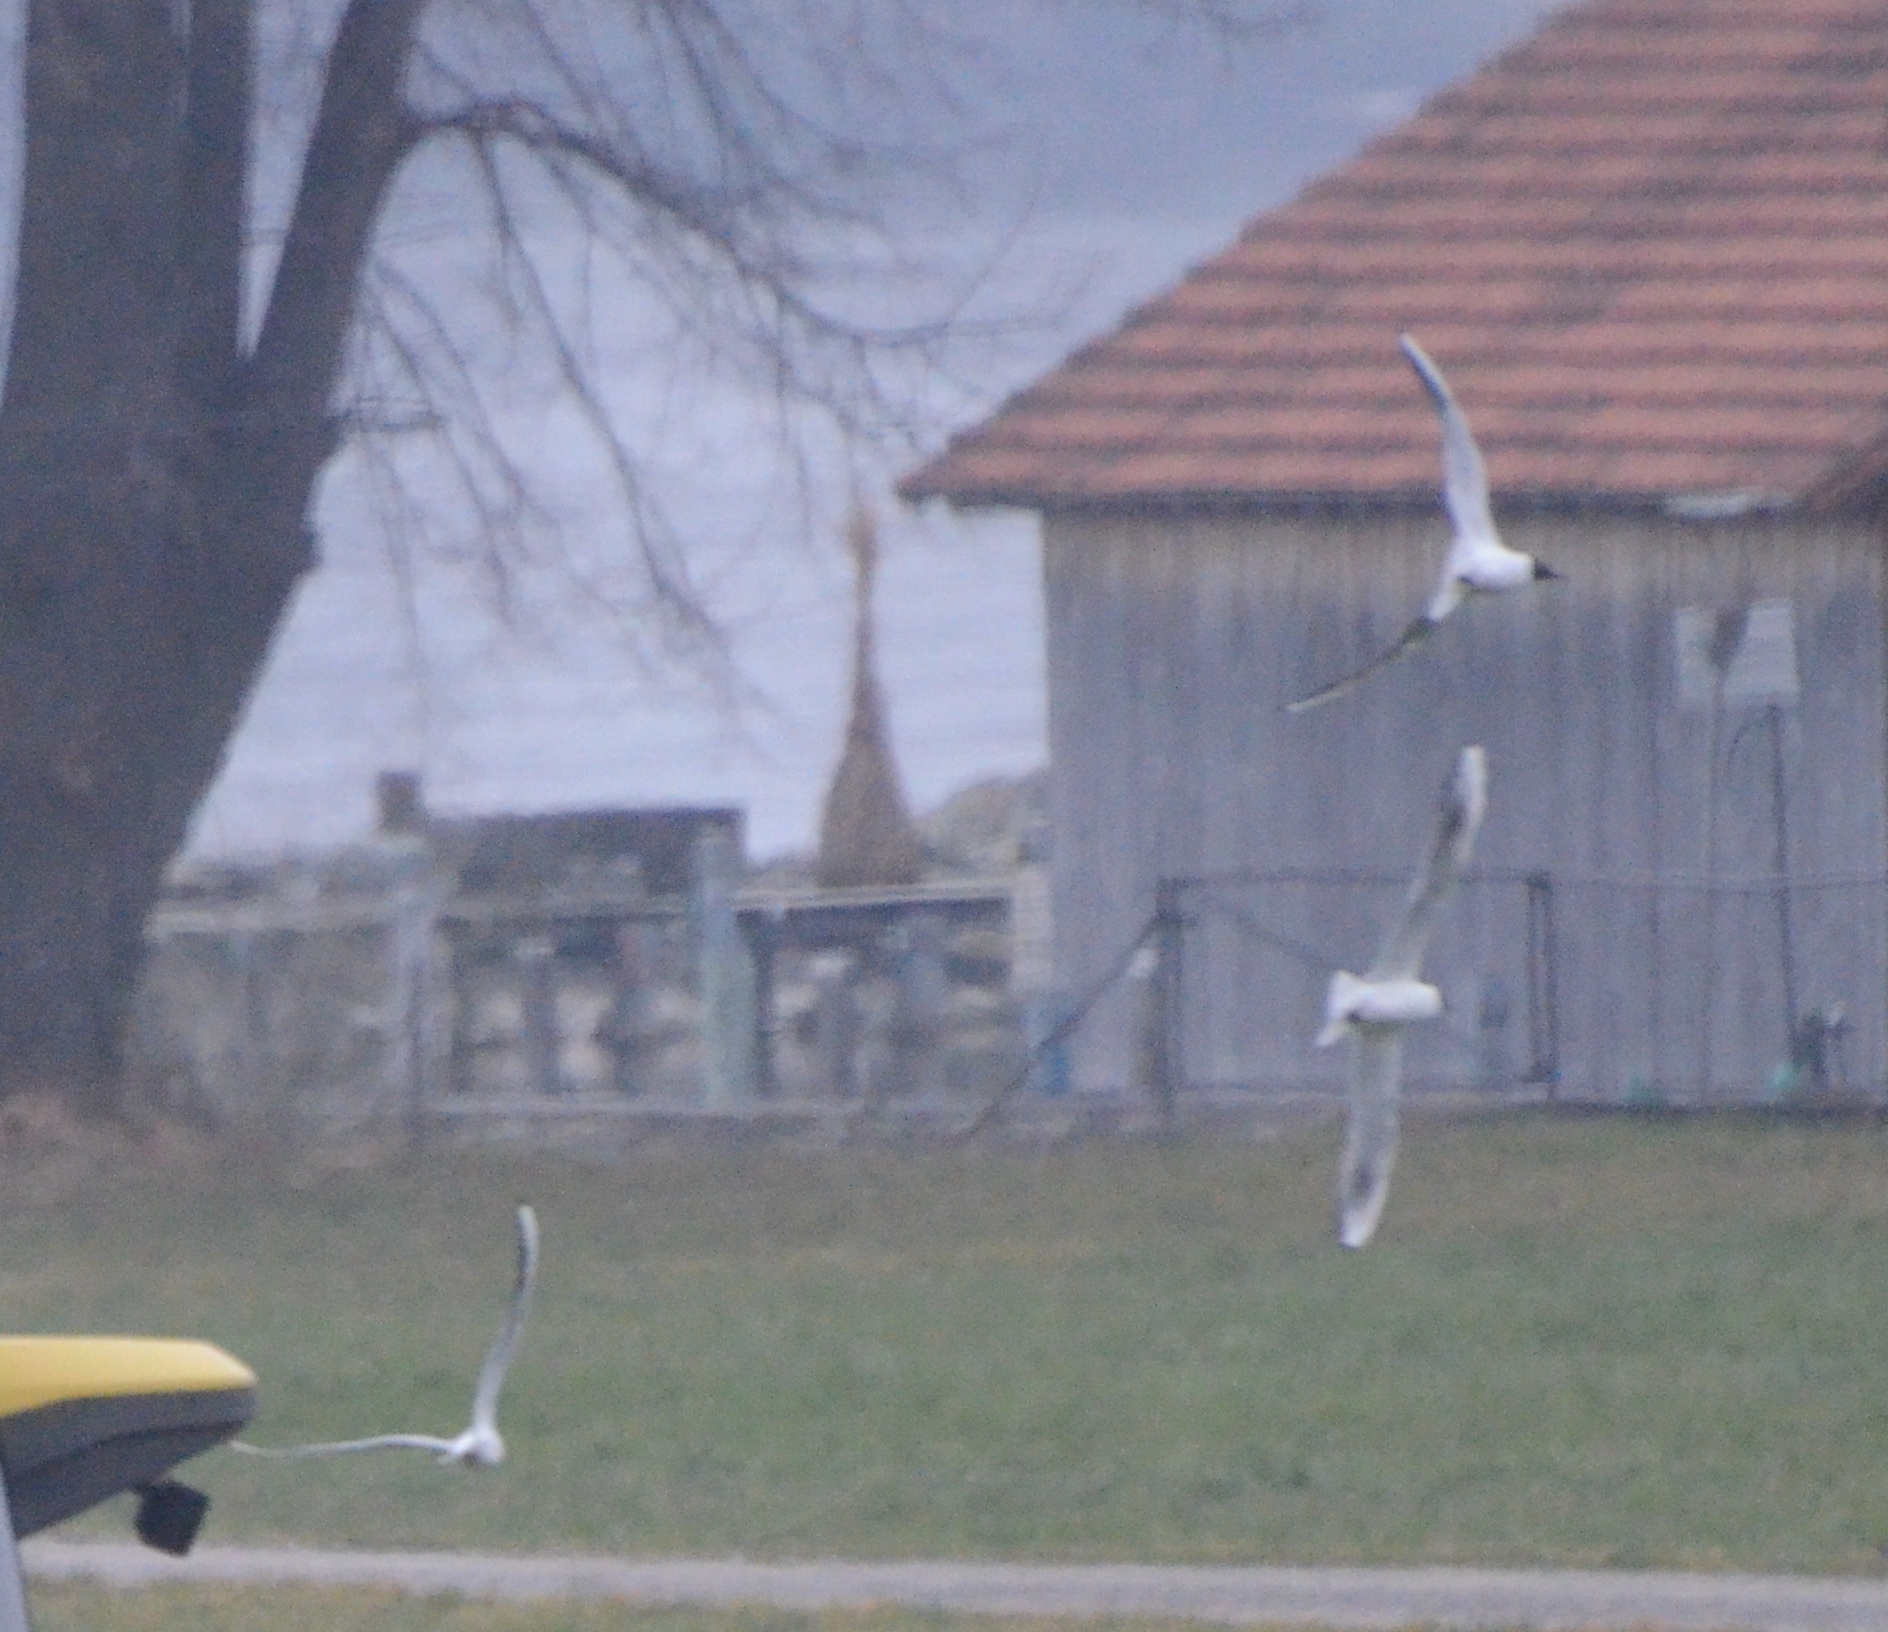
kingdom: Animalia
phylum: Chordata
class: Aves
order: Charadriiformes
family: Laridae
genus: Chroicocephalus
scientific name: Chroicocephalus ridibundus
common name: Black-headed gull
